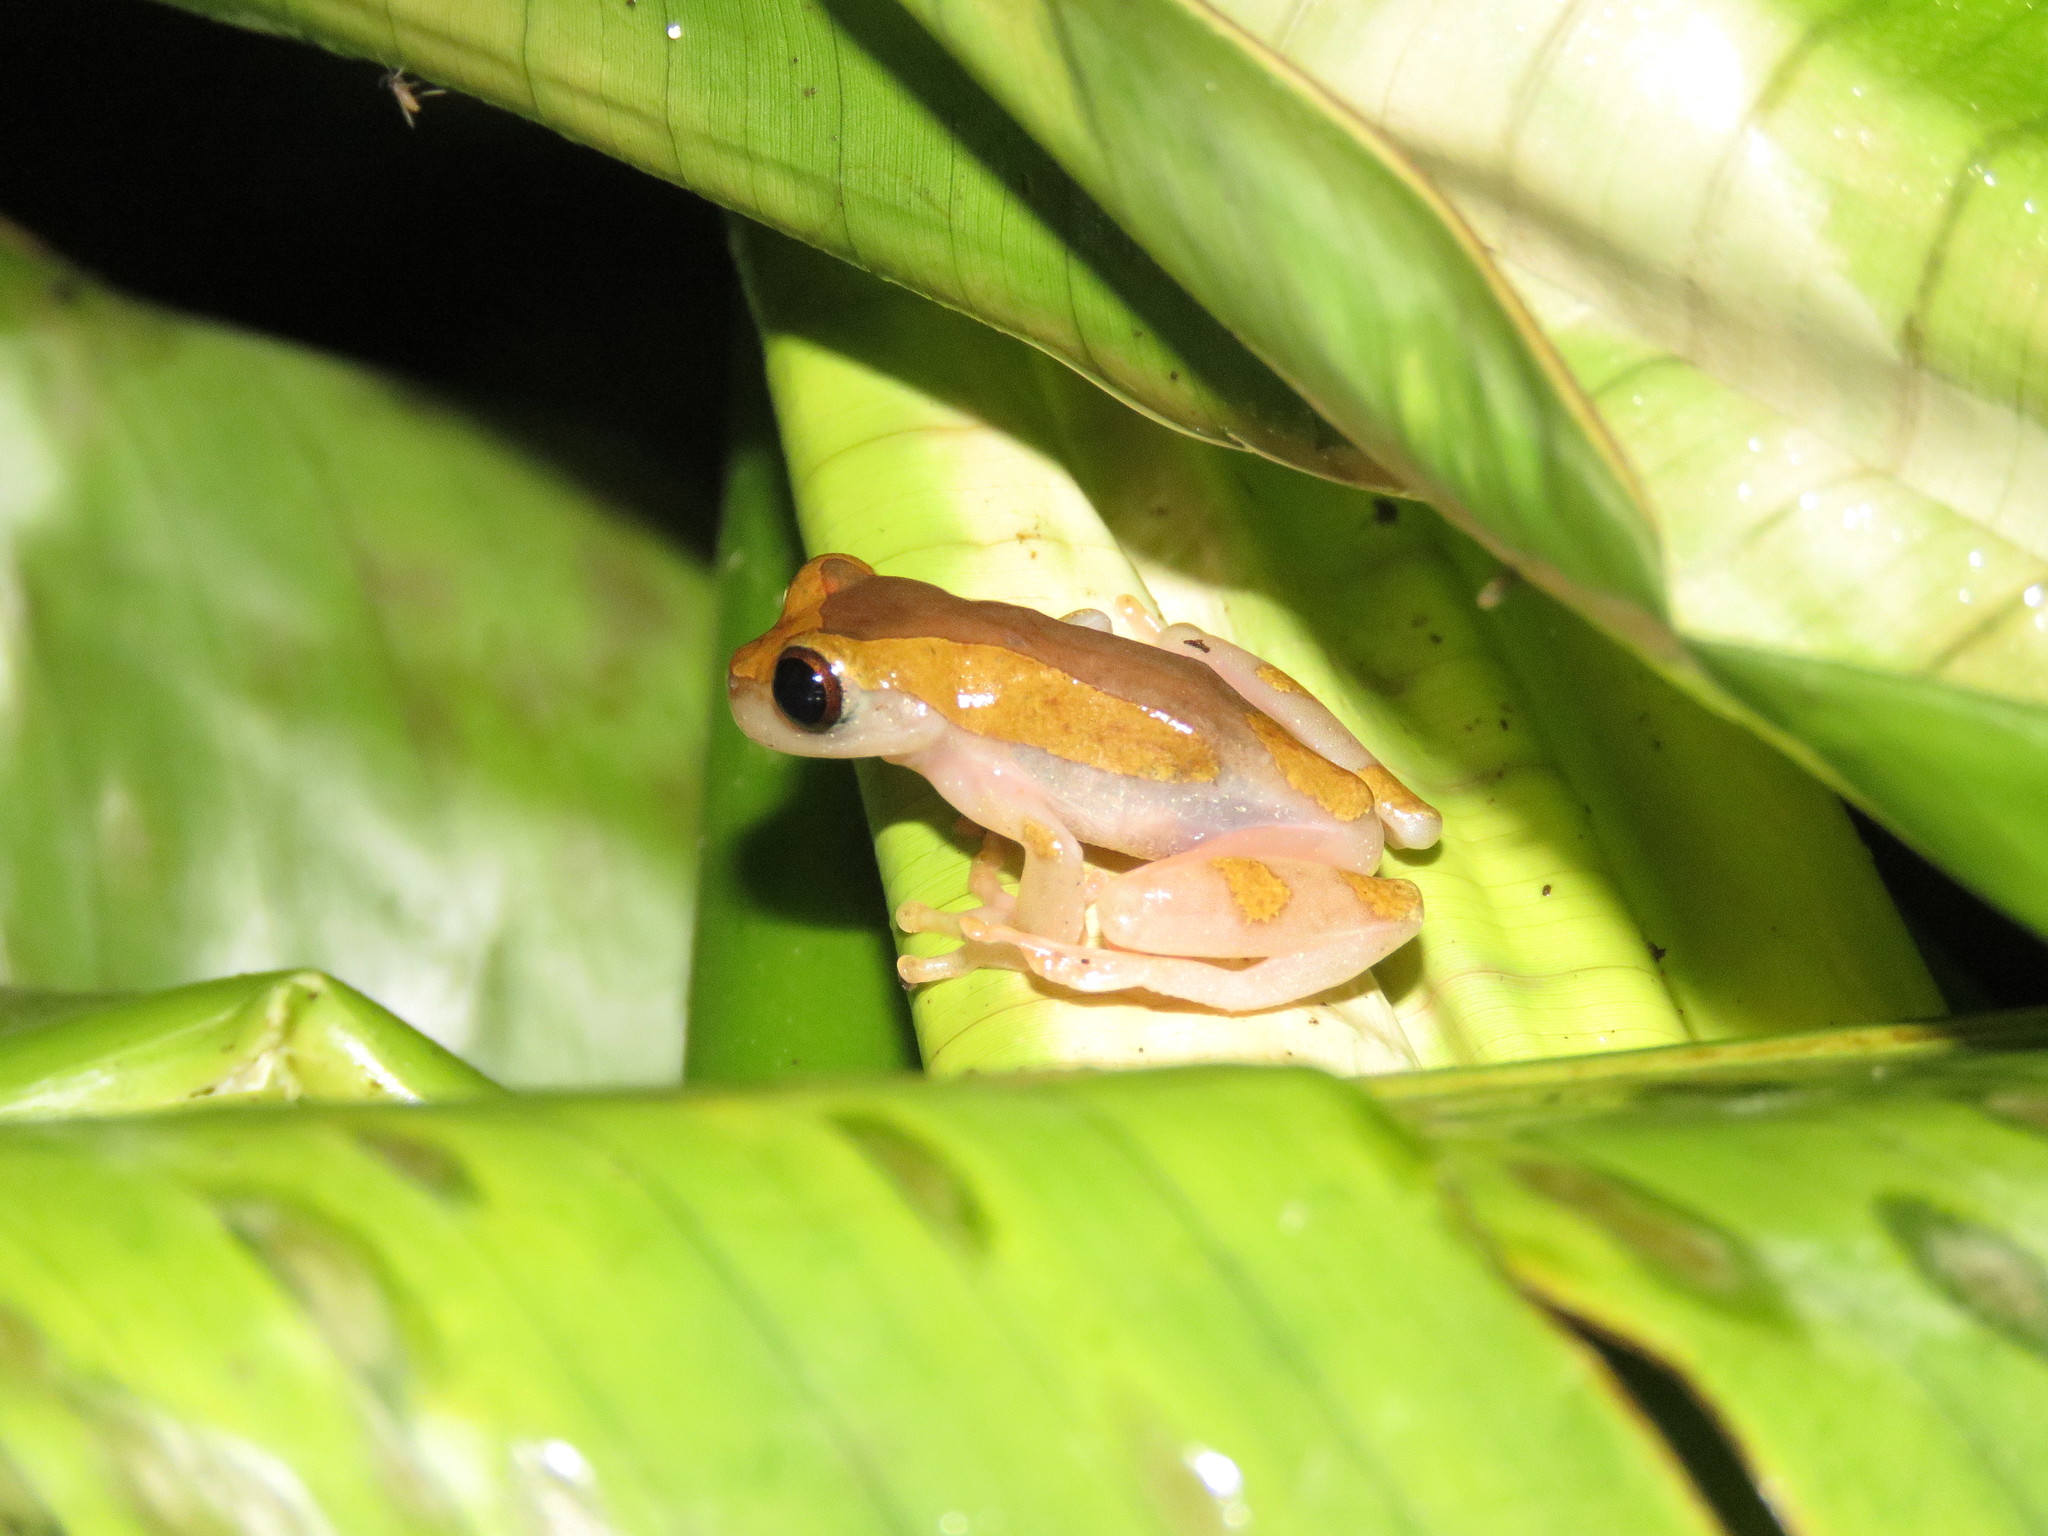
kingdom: Animalia
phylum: Chordata
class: Amphibia
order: Anura
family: Hylidae
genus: Dendropsophus
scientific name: Dendropsophus arndti
